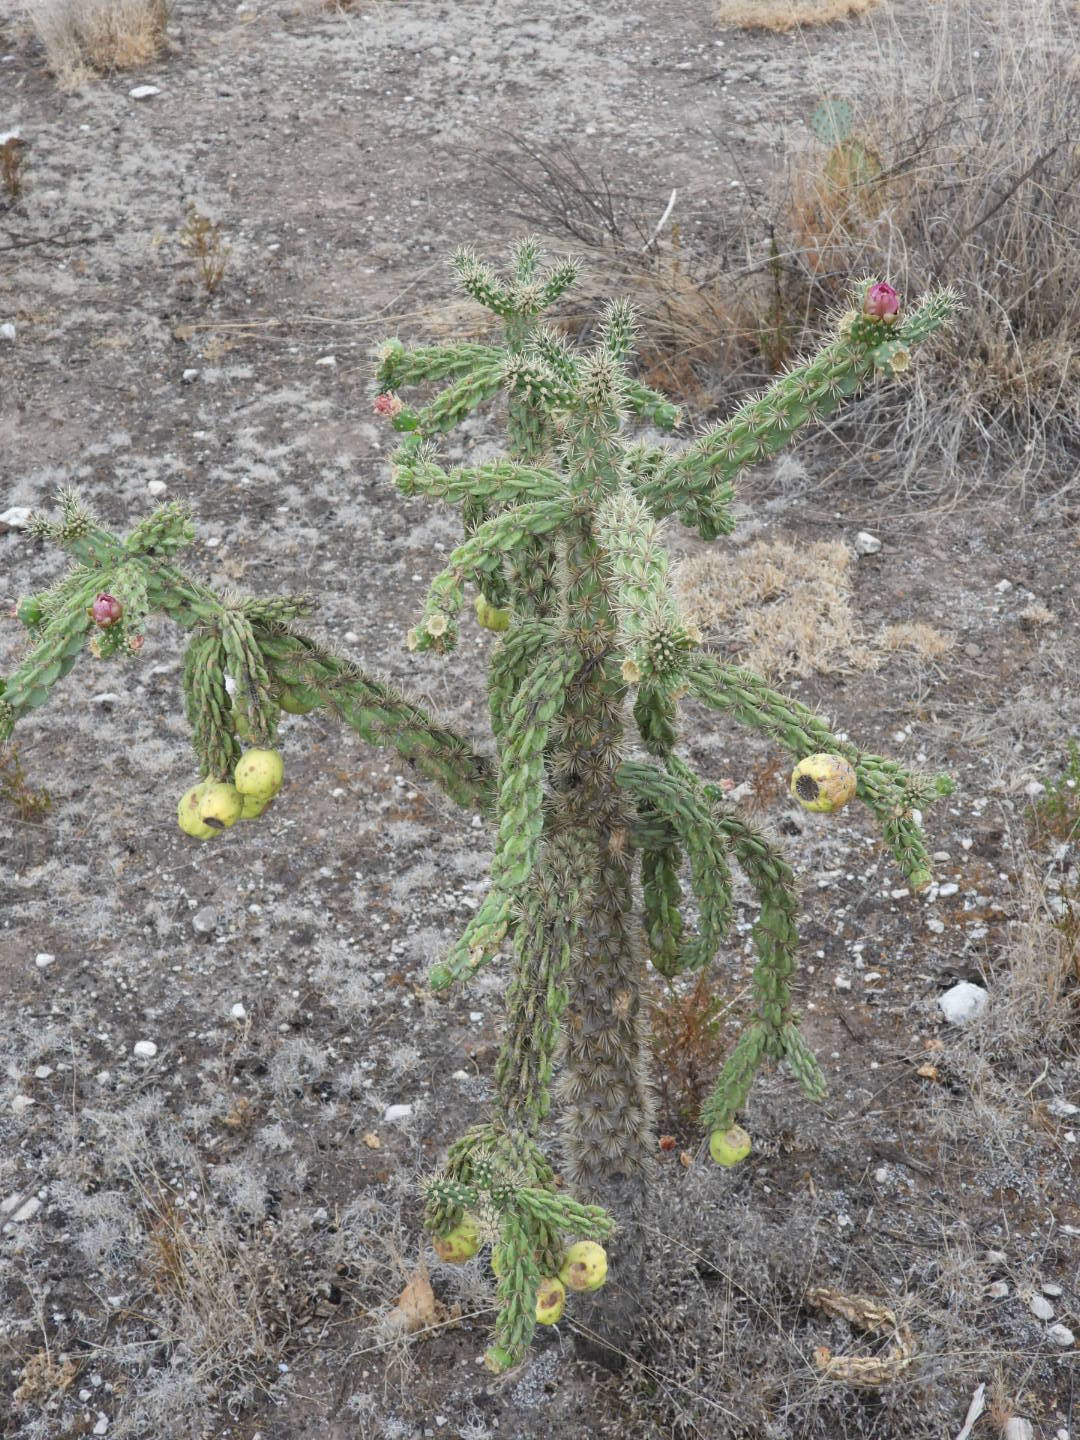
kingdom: Plantae
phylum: Tracheophyta
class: Magnoliopsida
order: Caryophyllales
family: Cactaceae
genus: Cylindropuntia
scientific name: Cylindropuntia imbricata
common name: Candelabrum cactus
